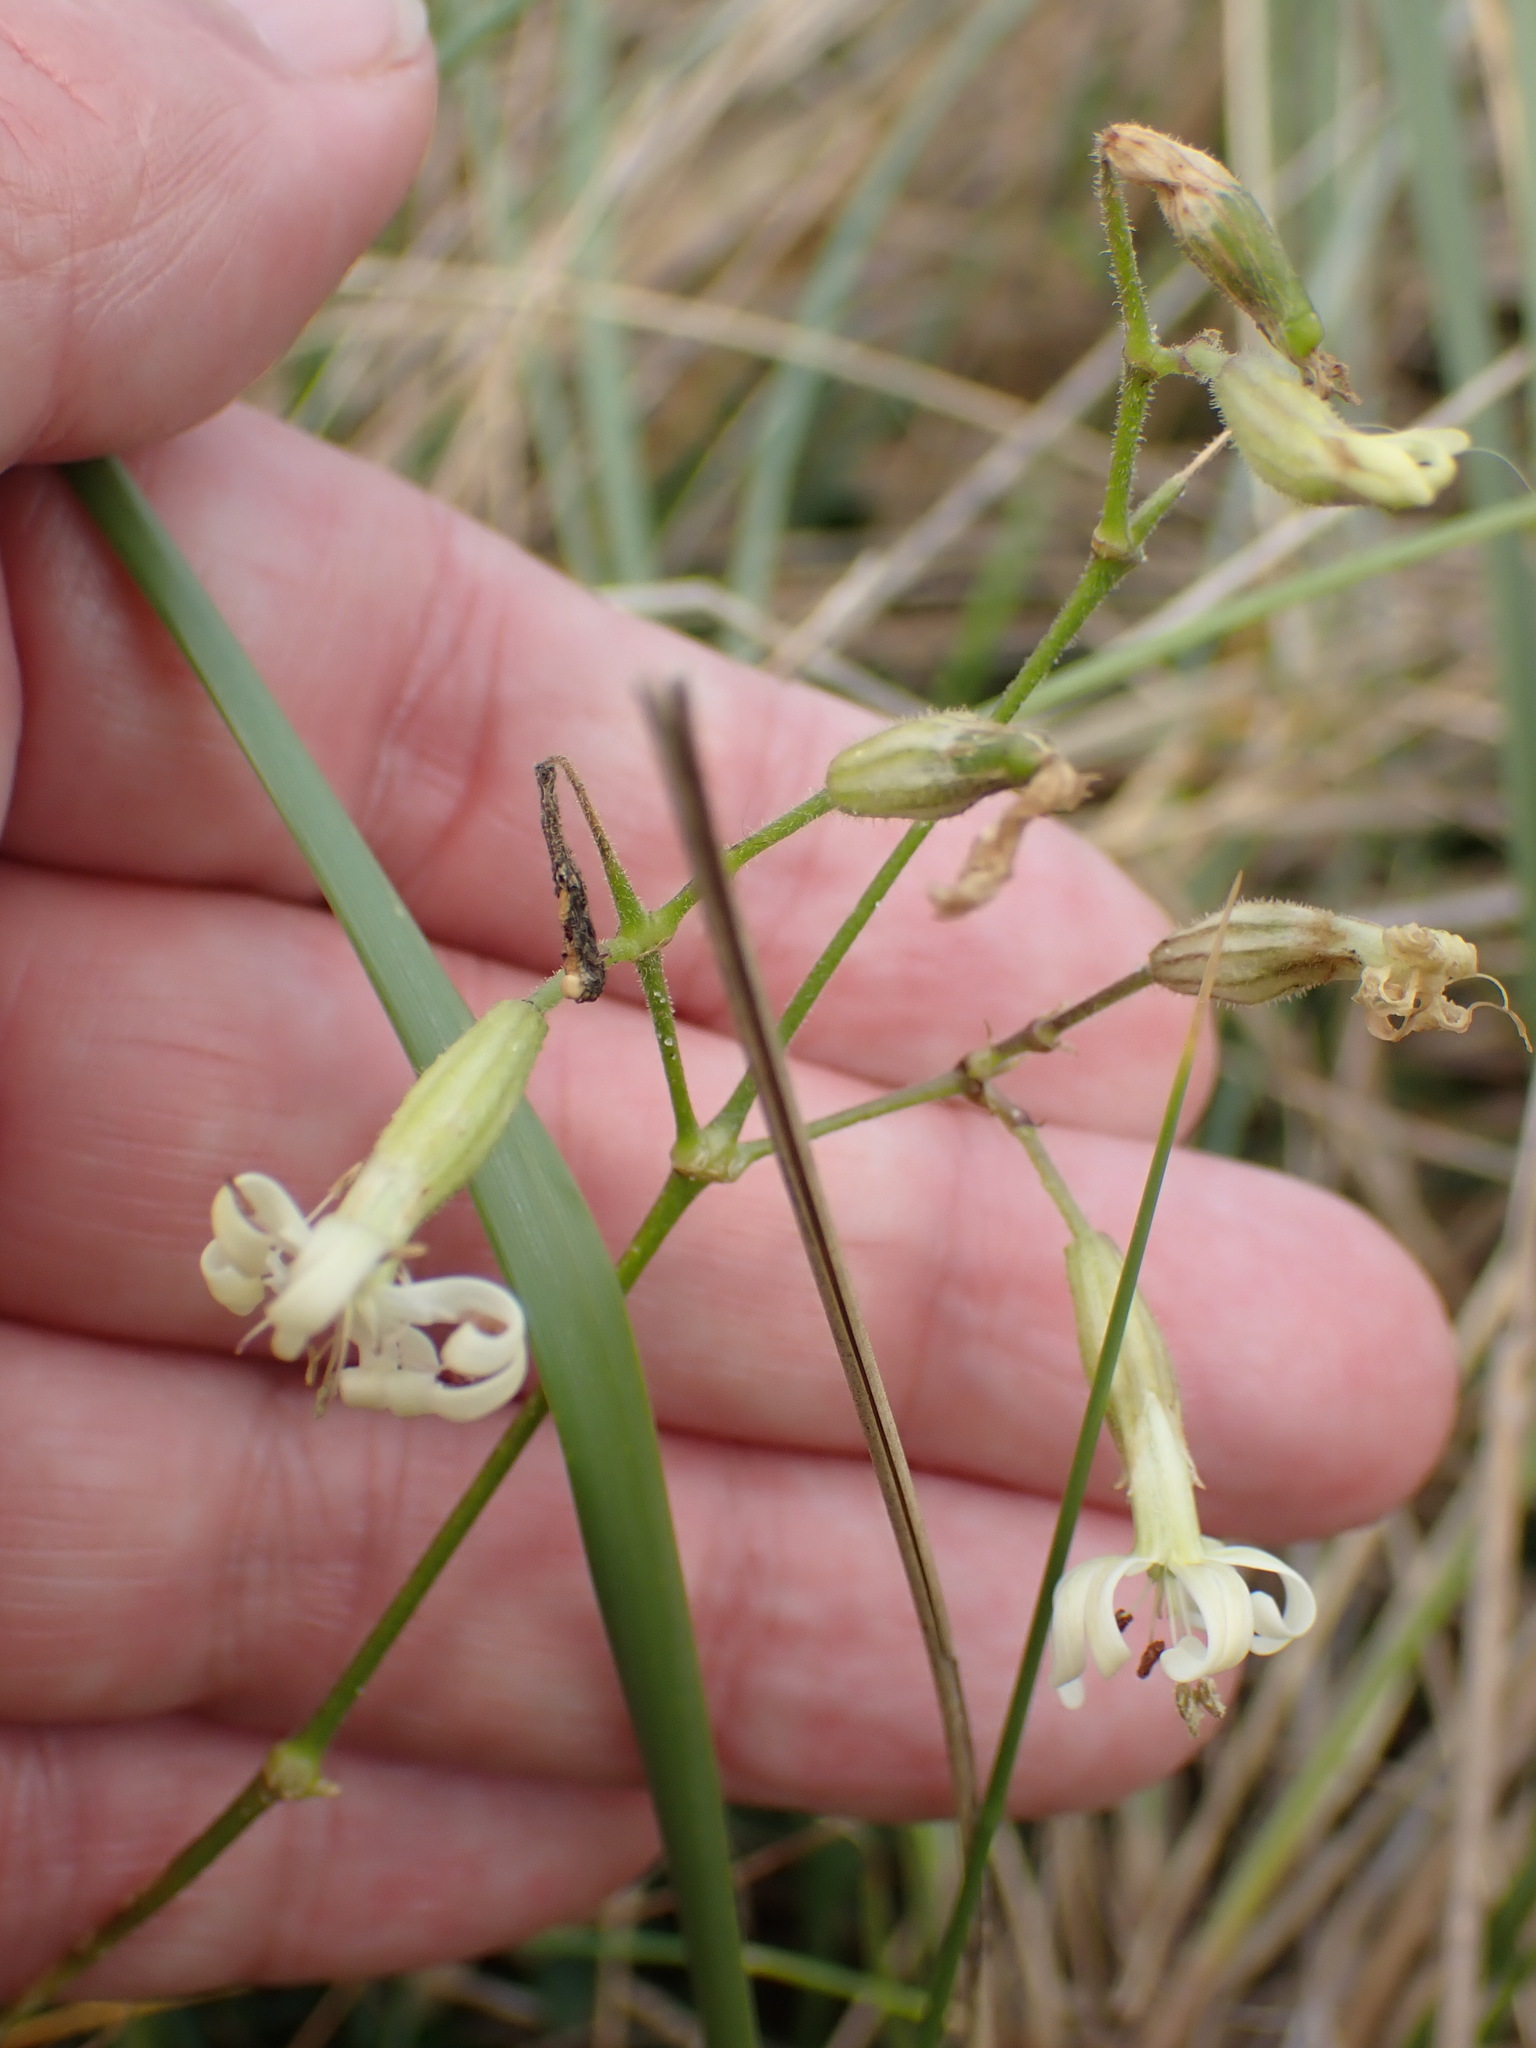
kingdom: Plantae
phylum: Tracheophyta
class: Magnoliopsida
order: Caryophyllales
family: Caryophyllaceae
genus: Silene
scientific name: Silene nutans
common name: Nottingham catchfly
